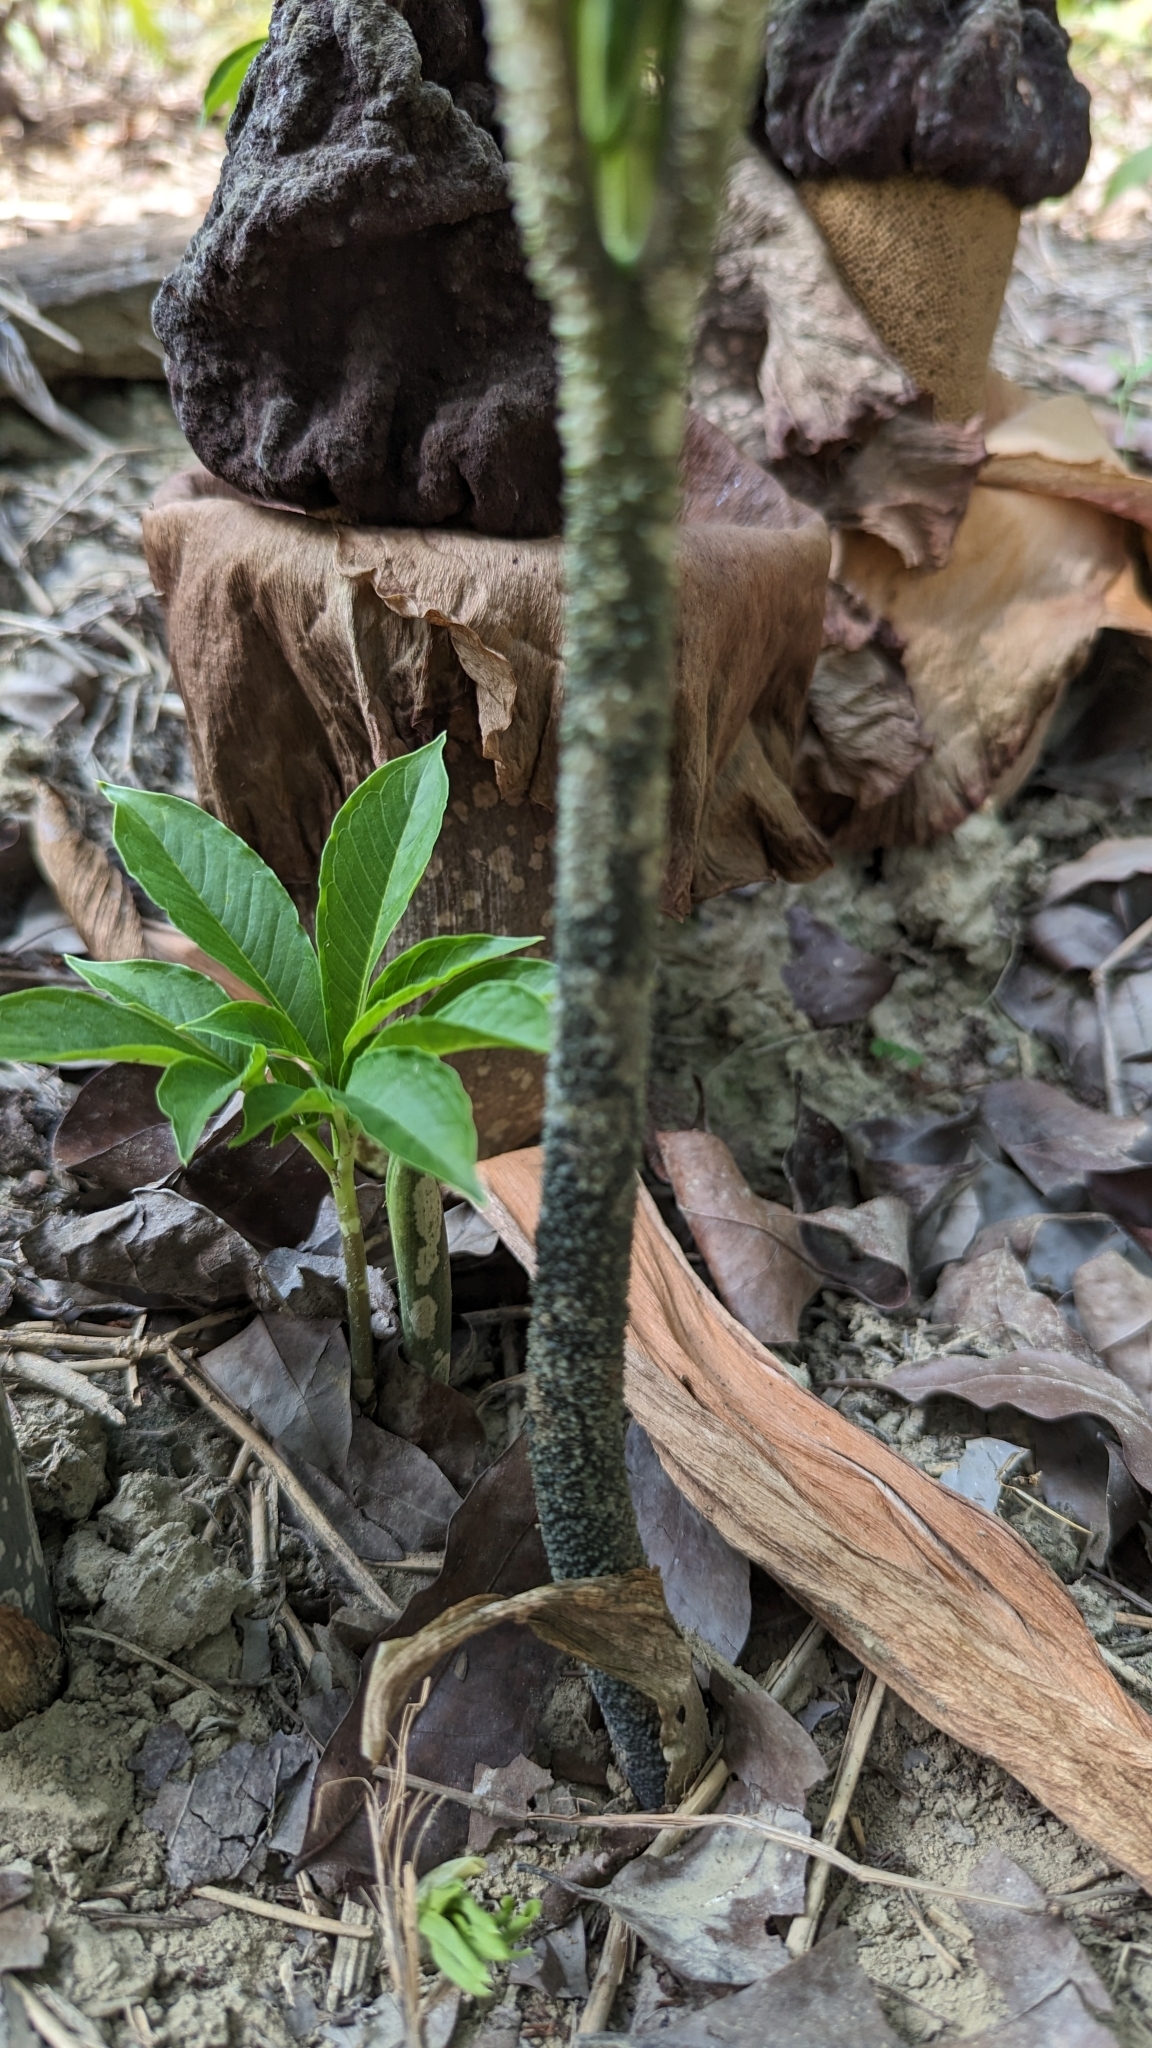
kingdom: Plantae
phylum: Tracheophyta
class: Liliopsida
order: Alismatales
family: Araceae
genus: Amorphophallus
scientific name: Amorphophallus paeoniifolius
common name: Telinga-potato
